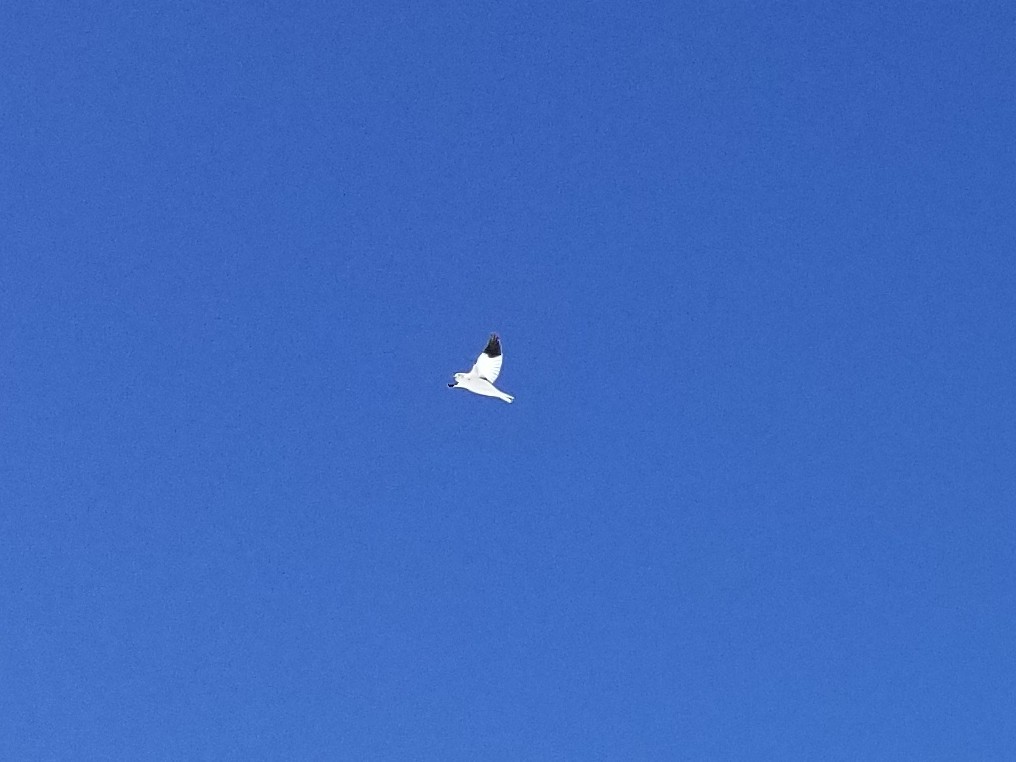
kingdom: Animalia
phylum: Chordata
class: Aves
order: Passeriformes
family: Calcariidae
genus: Plectrophenax
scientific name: Plectrophenax nivalis
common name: Snow bunting
